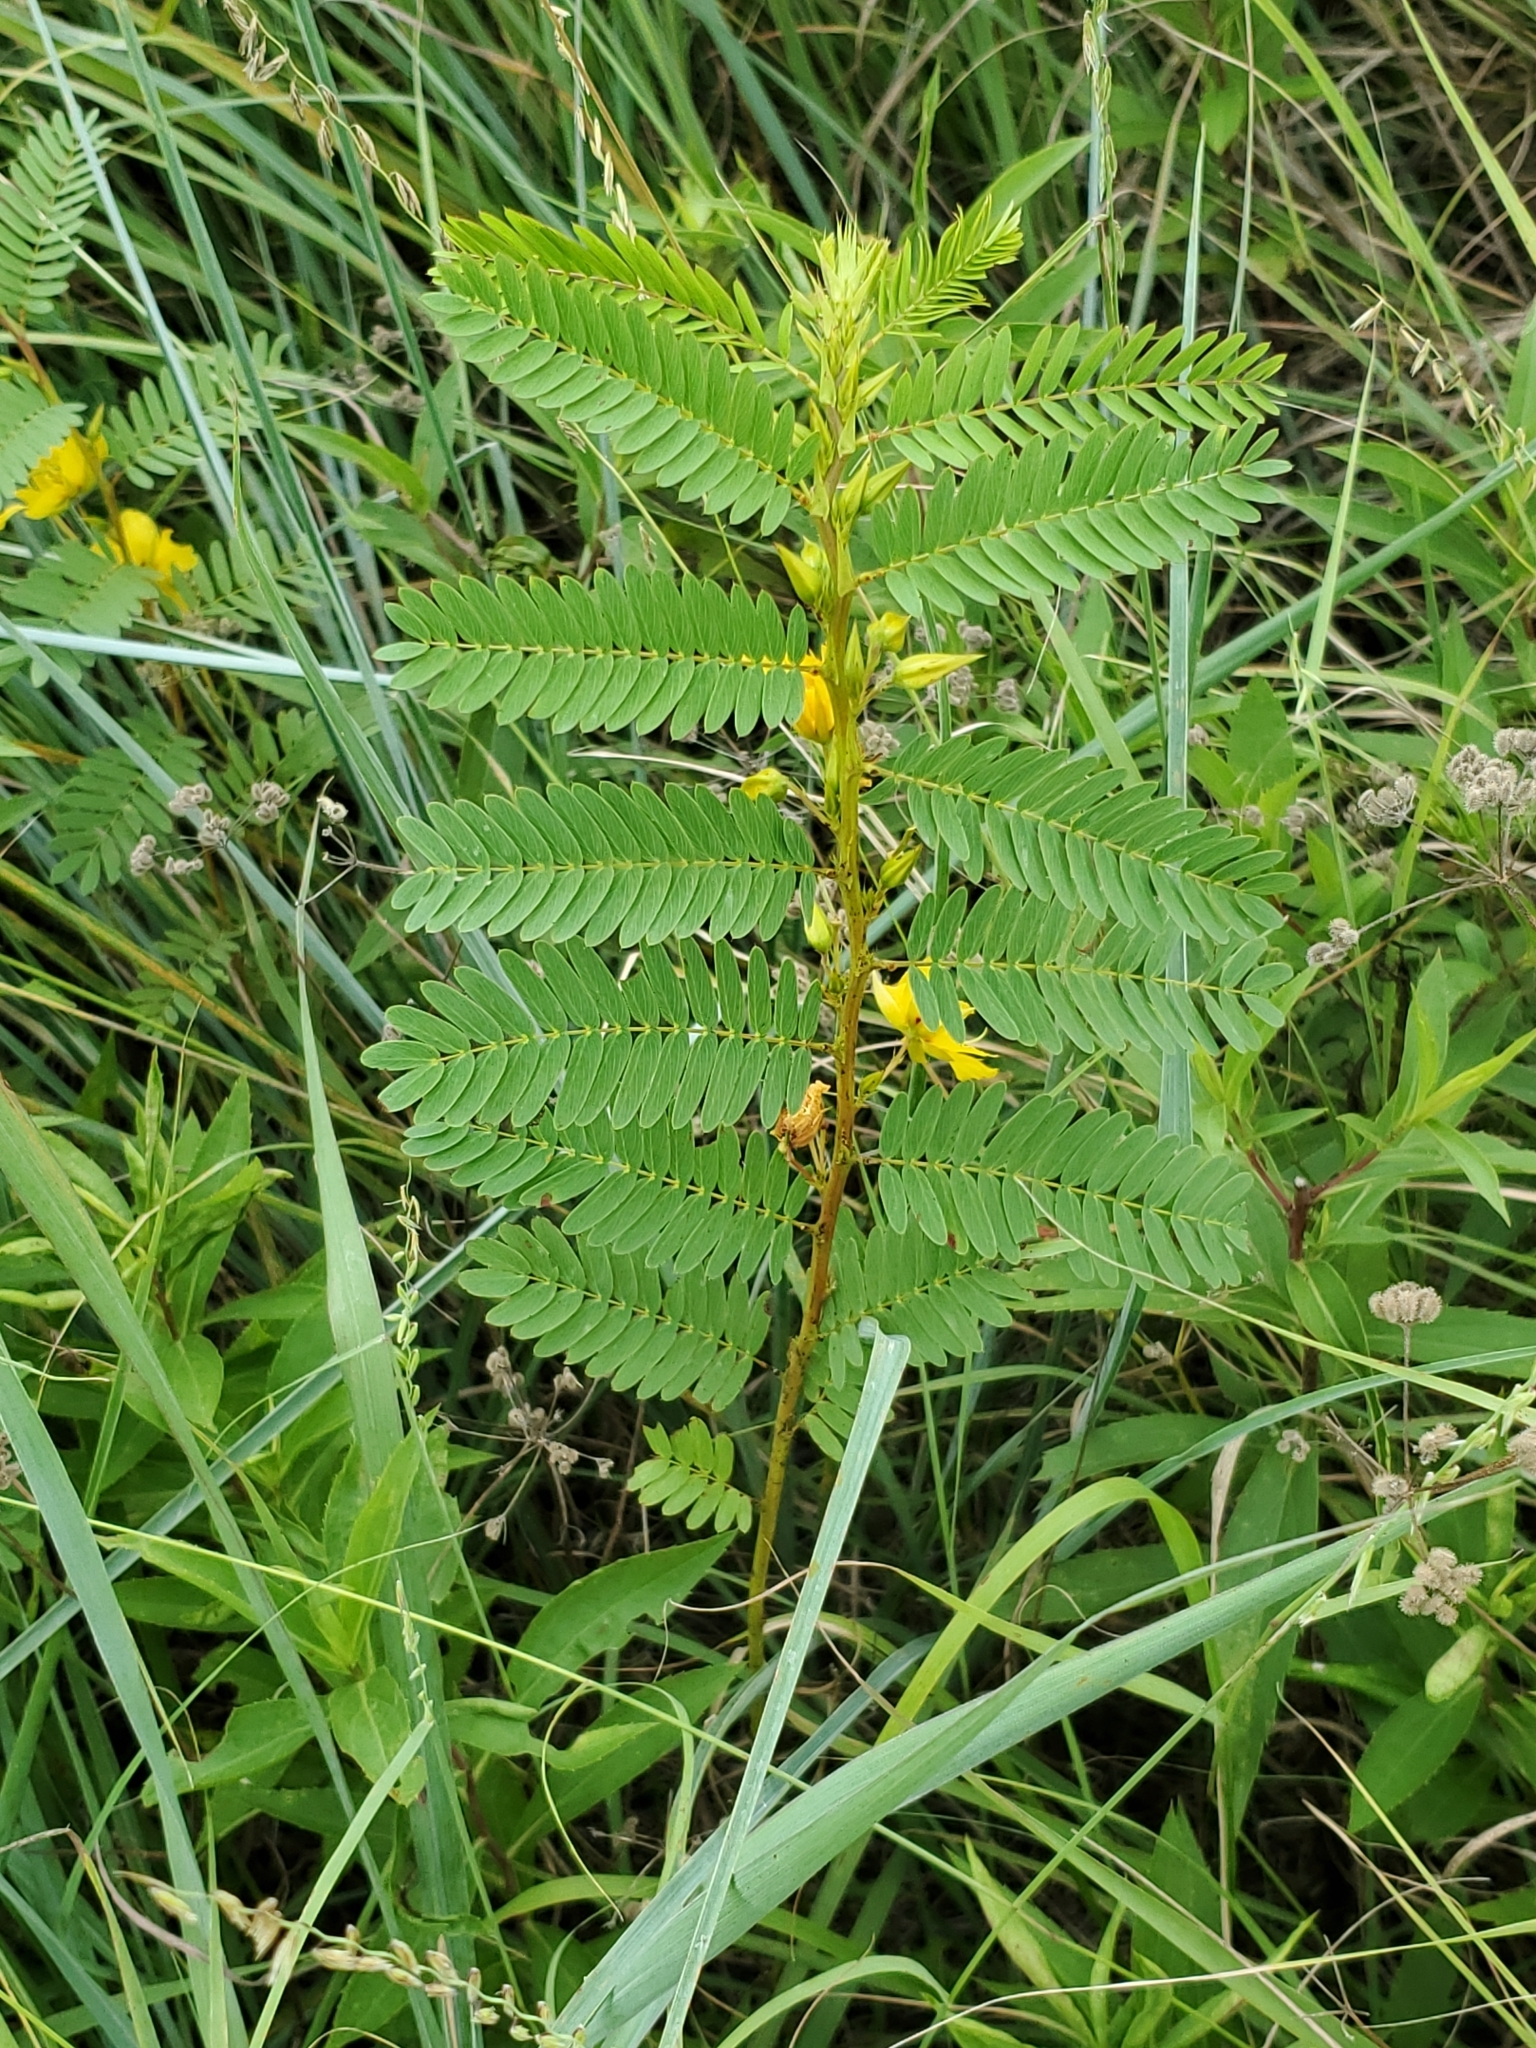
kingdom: Plantae
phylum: Tracheophyta
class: Magnoliopsida
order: Fabales
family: Fabaceae
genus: Chamaecrista
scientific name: Chamaecrista fasciculata
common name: Golden cassia
